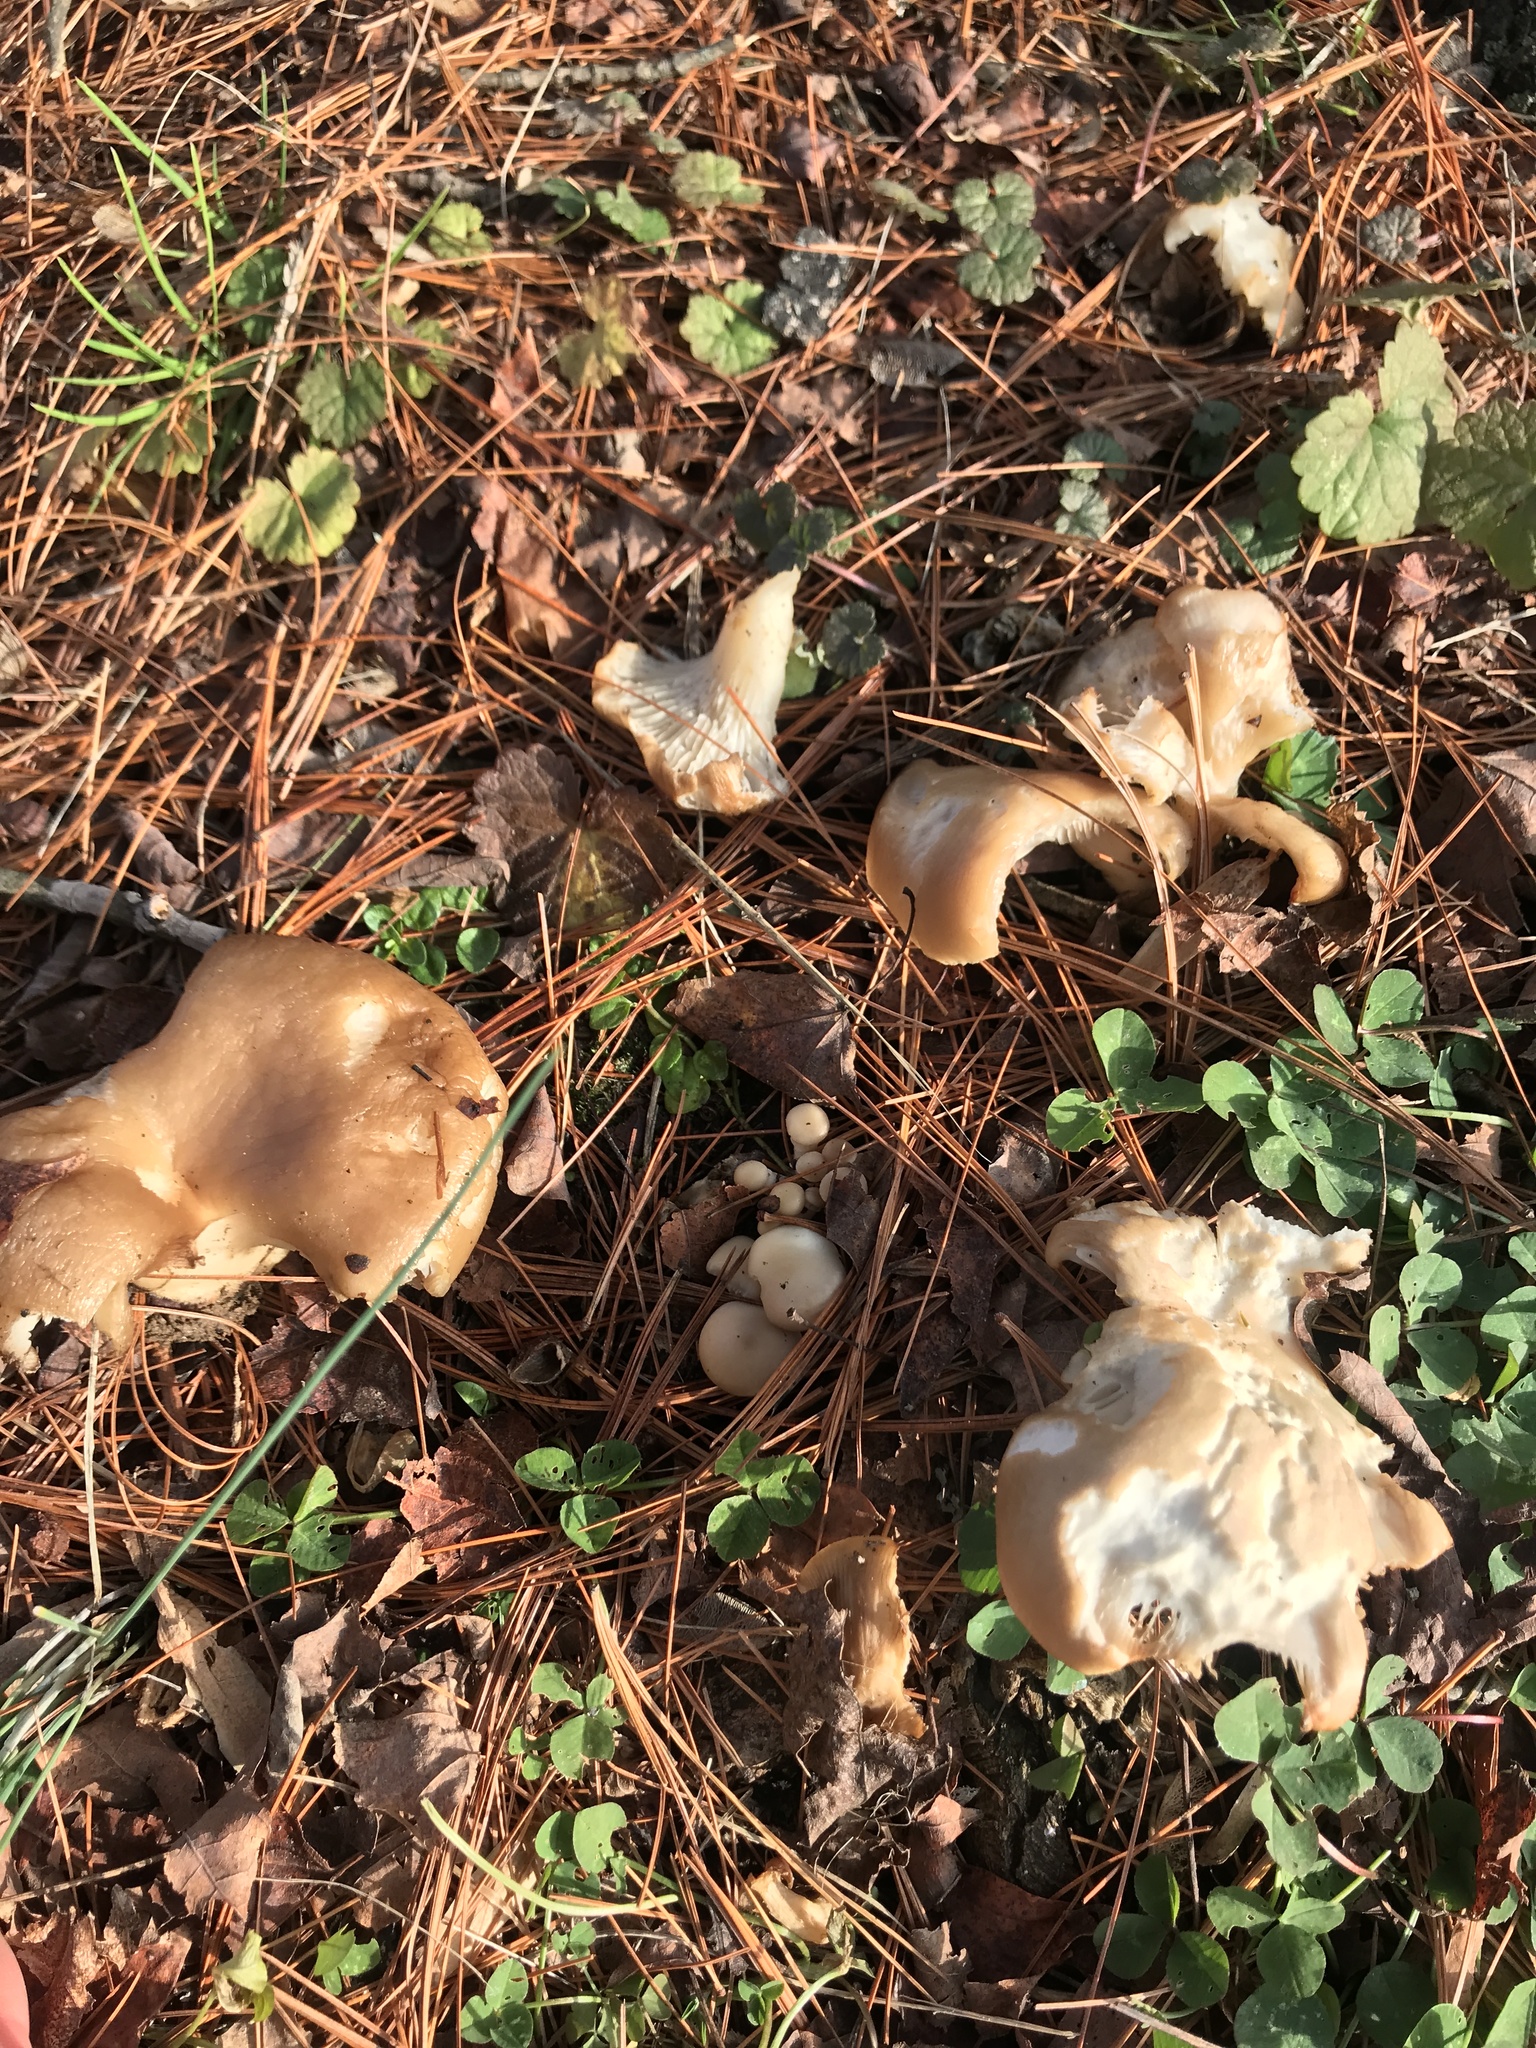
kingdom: Fungi
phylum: Basidiomycota
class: Agaricomycetes
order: Agaricales
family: Pleurotaceae
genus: Pleurotus
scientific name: Pleurotus ostreatus
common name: Oyster mushroom
